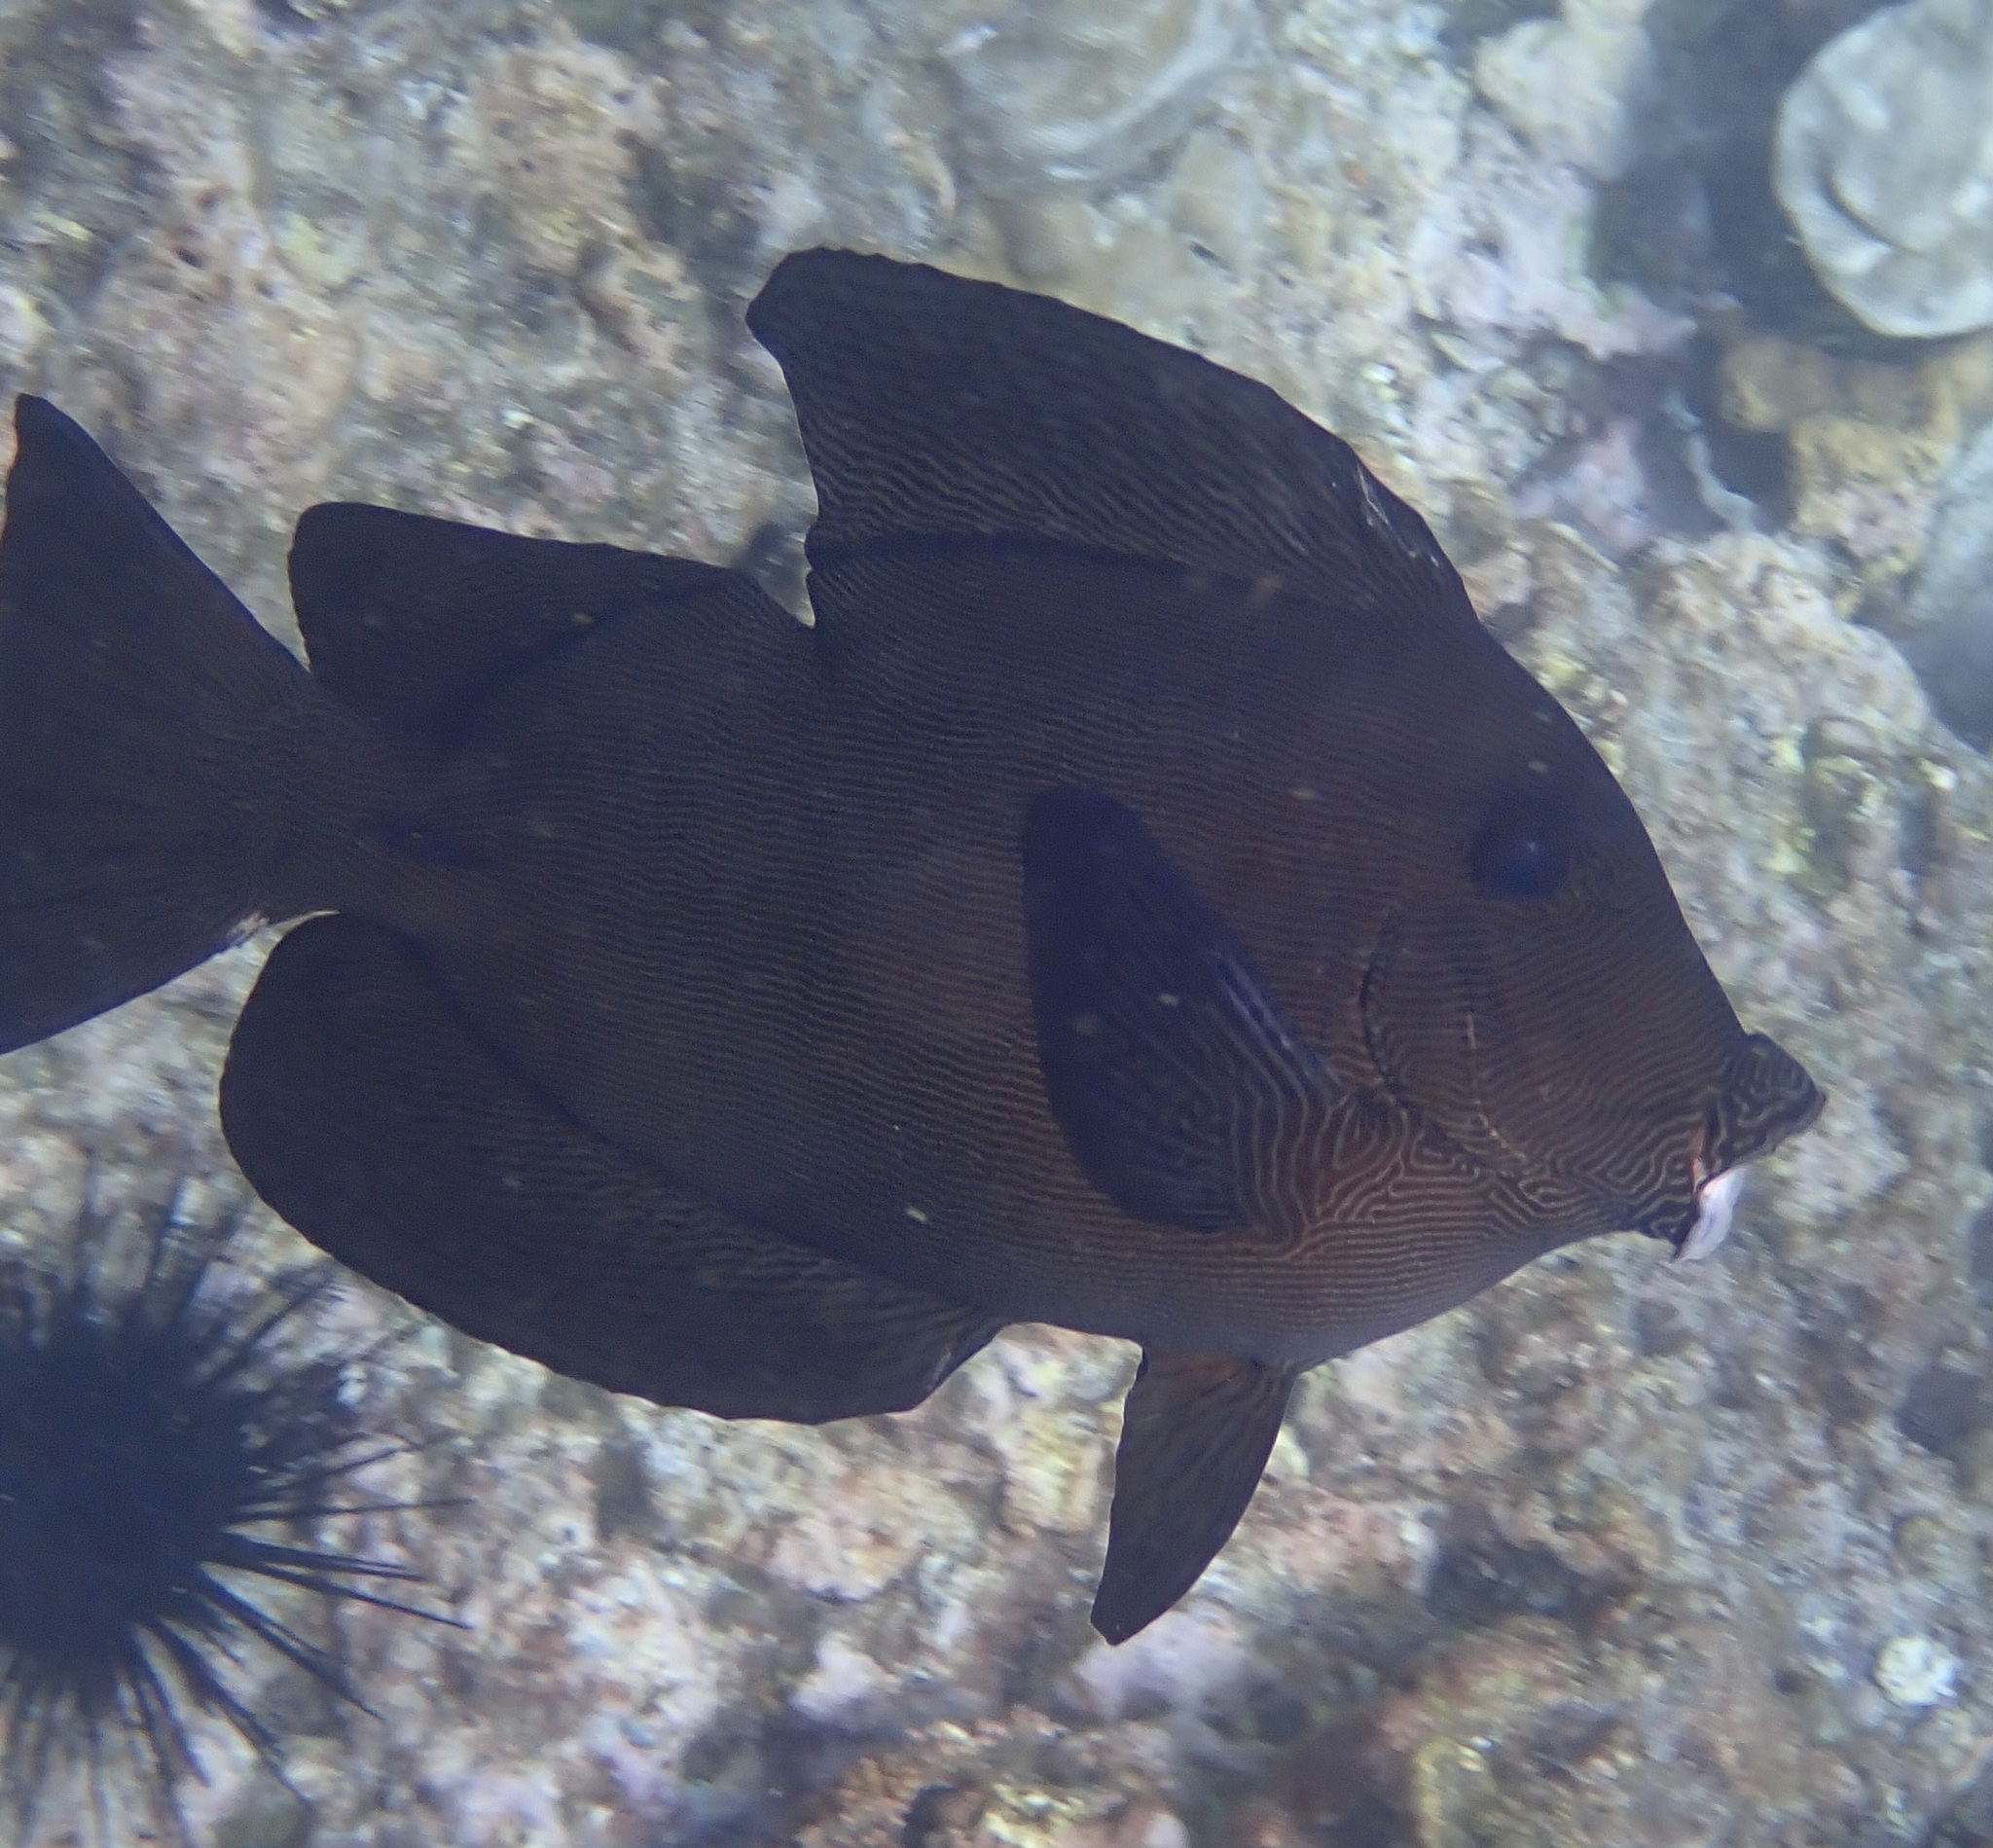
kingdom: Animalia
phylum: Chordata
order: Perciformes
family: Acanthuridae
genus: Ctenochaetus
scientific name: Ctenochaetus hawaiiensis
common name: Hawaiian surgeonfish
